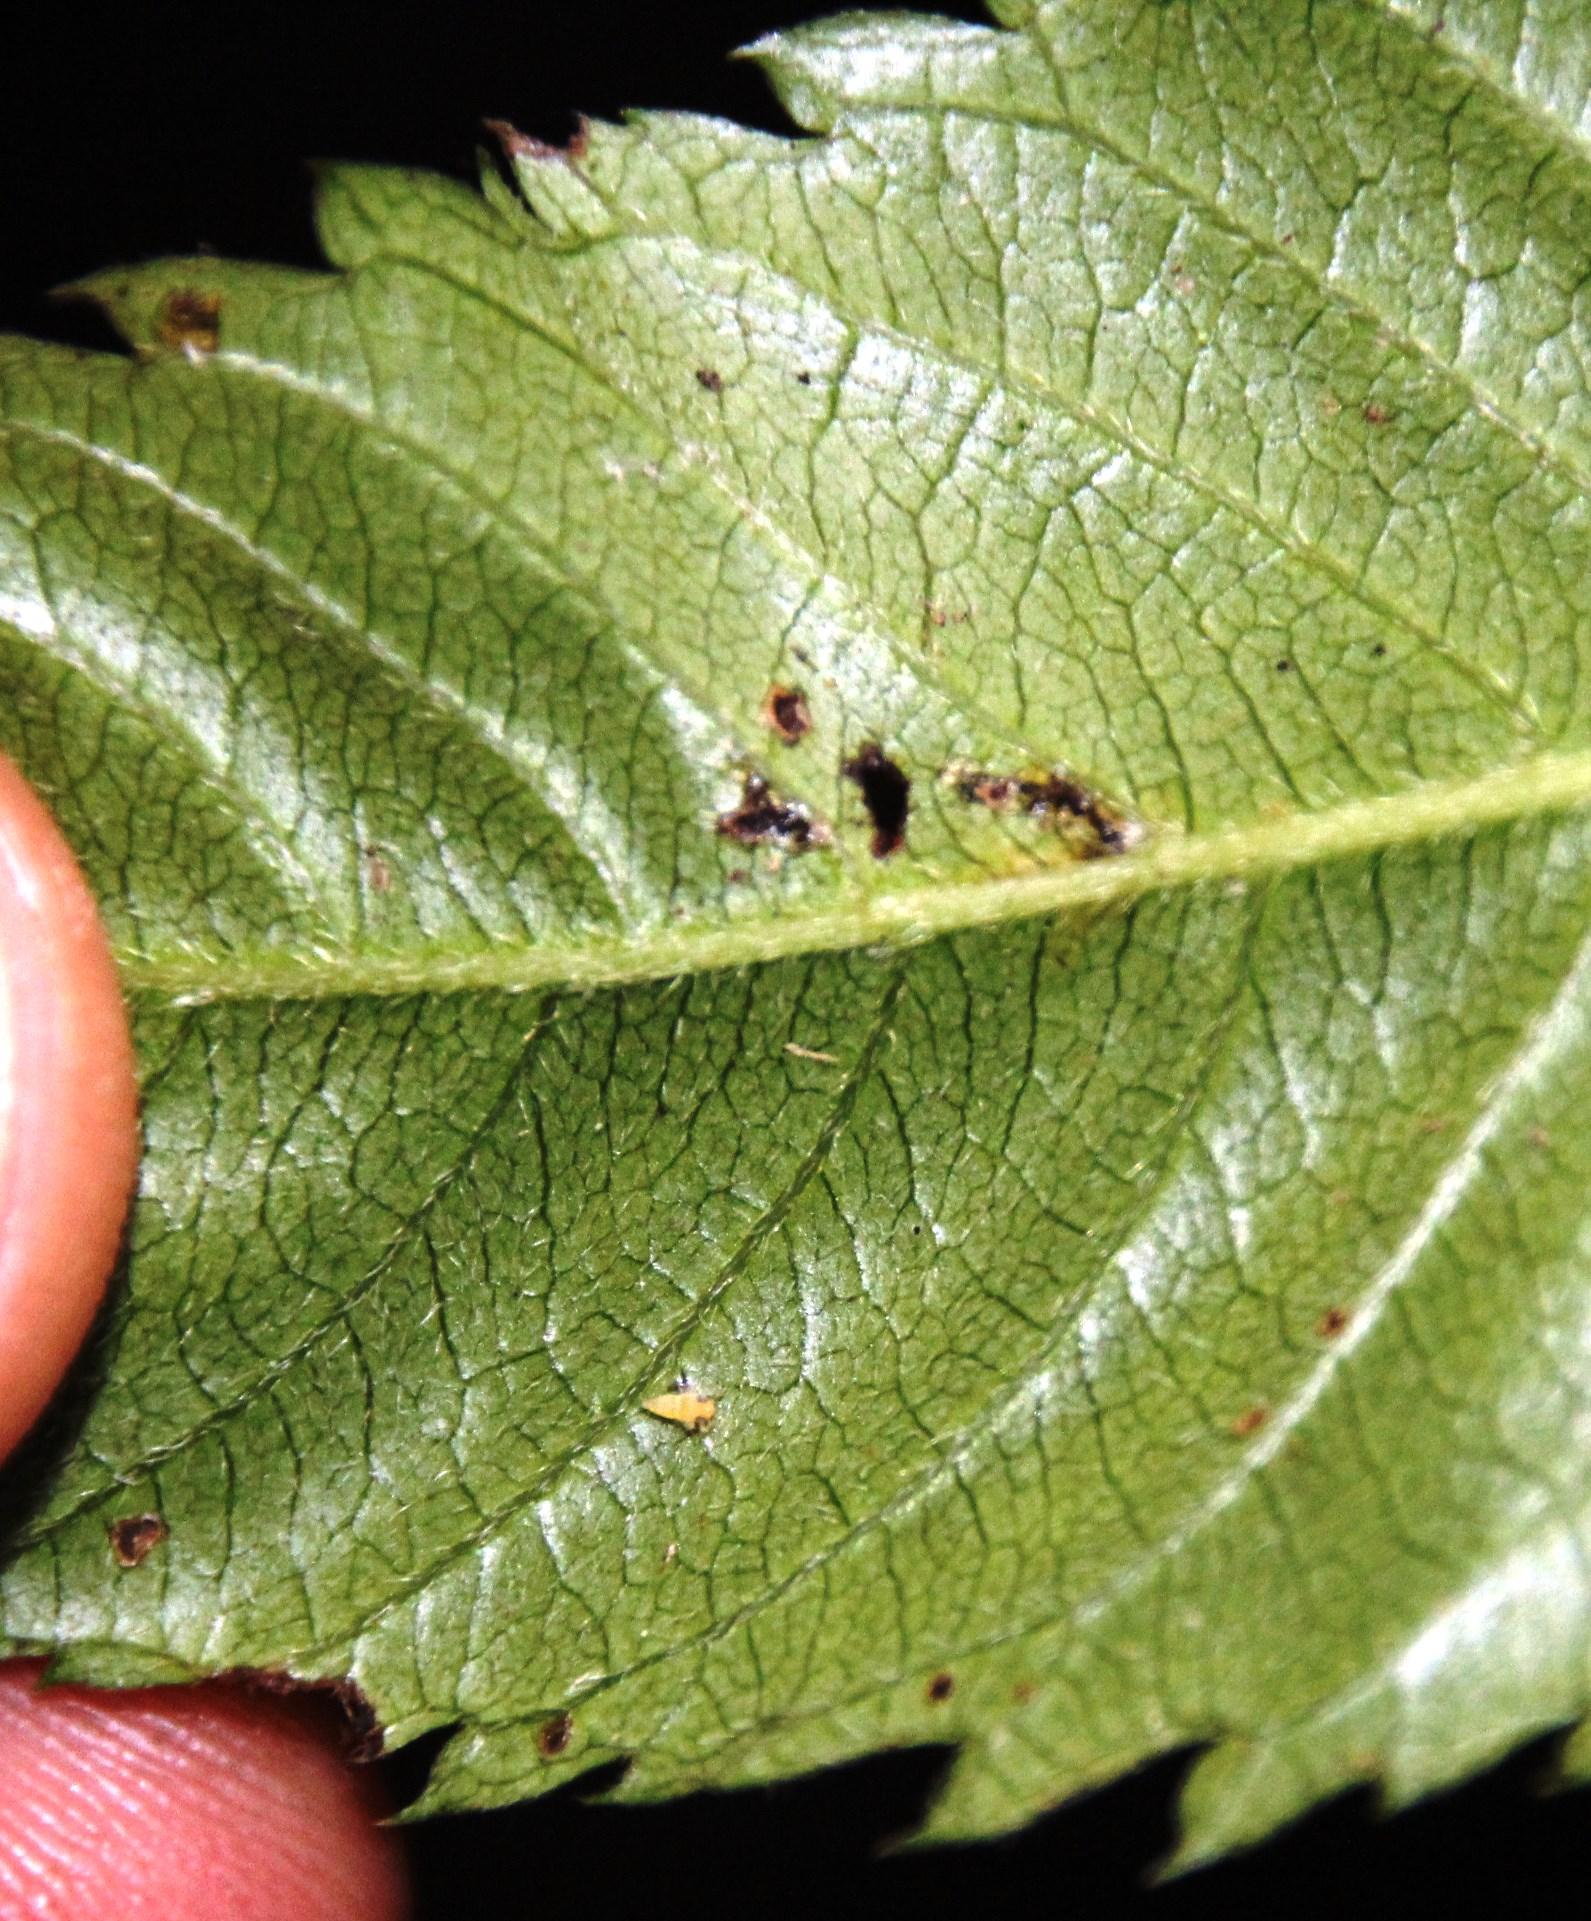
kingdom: Plantae
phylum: Tracheophyta
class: Magnoliopsida
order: Oxalidales
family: Cunoniaceae
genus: Caldcluvia
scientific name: Caldcluvia paniculata
